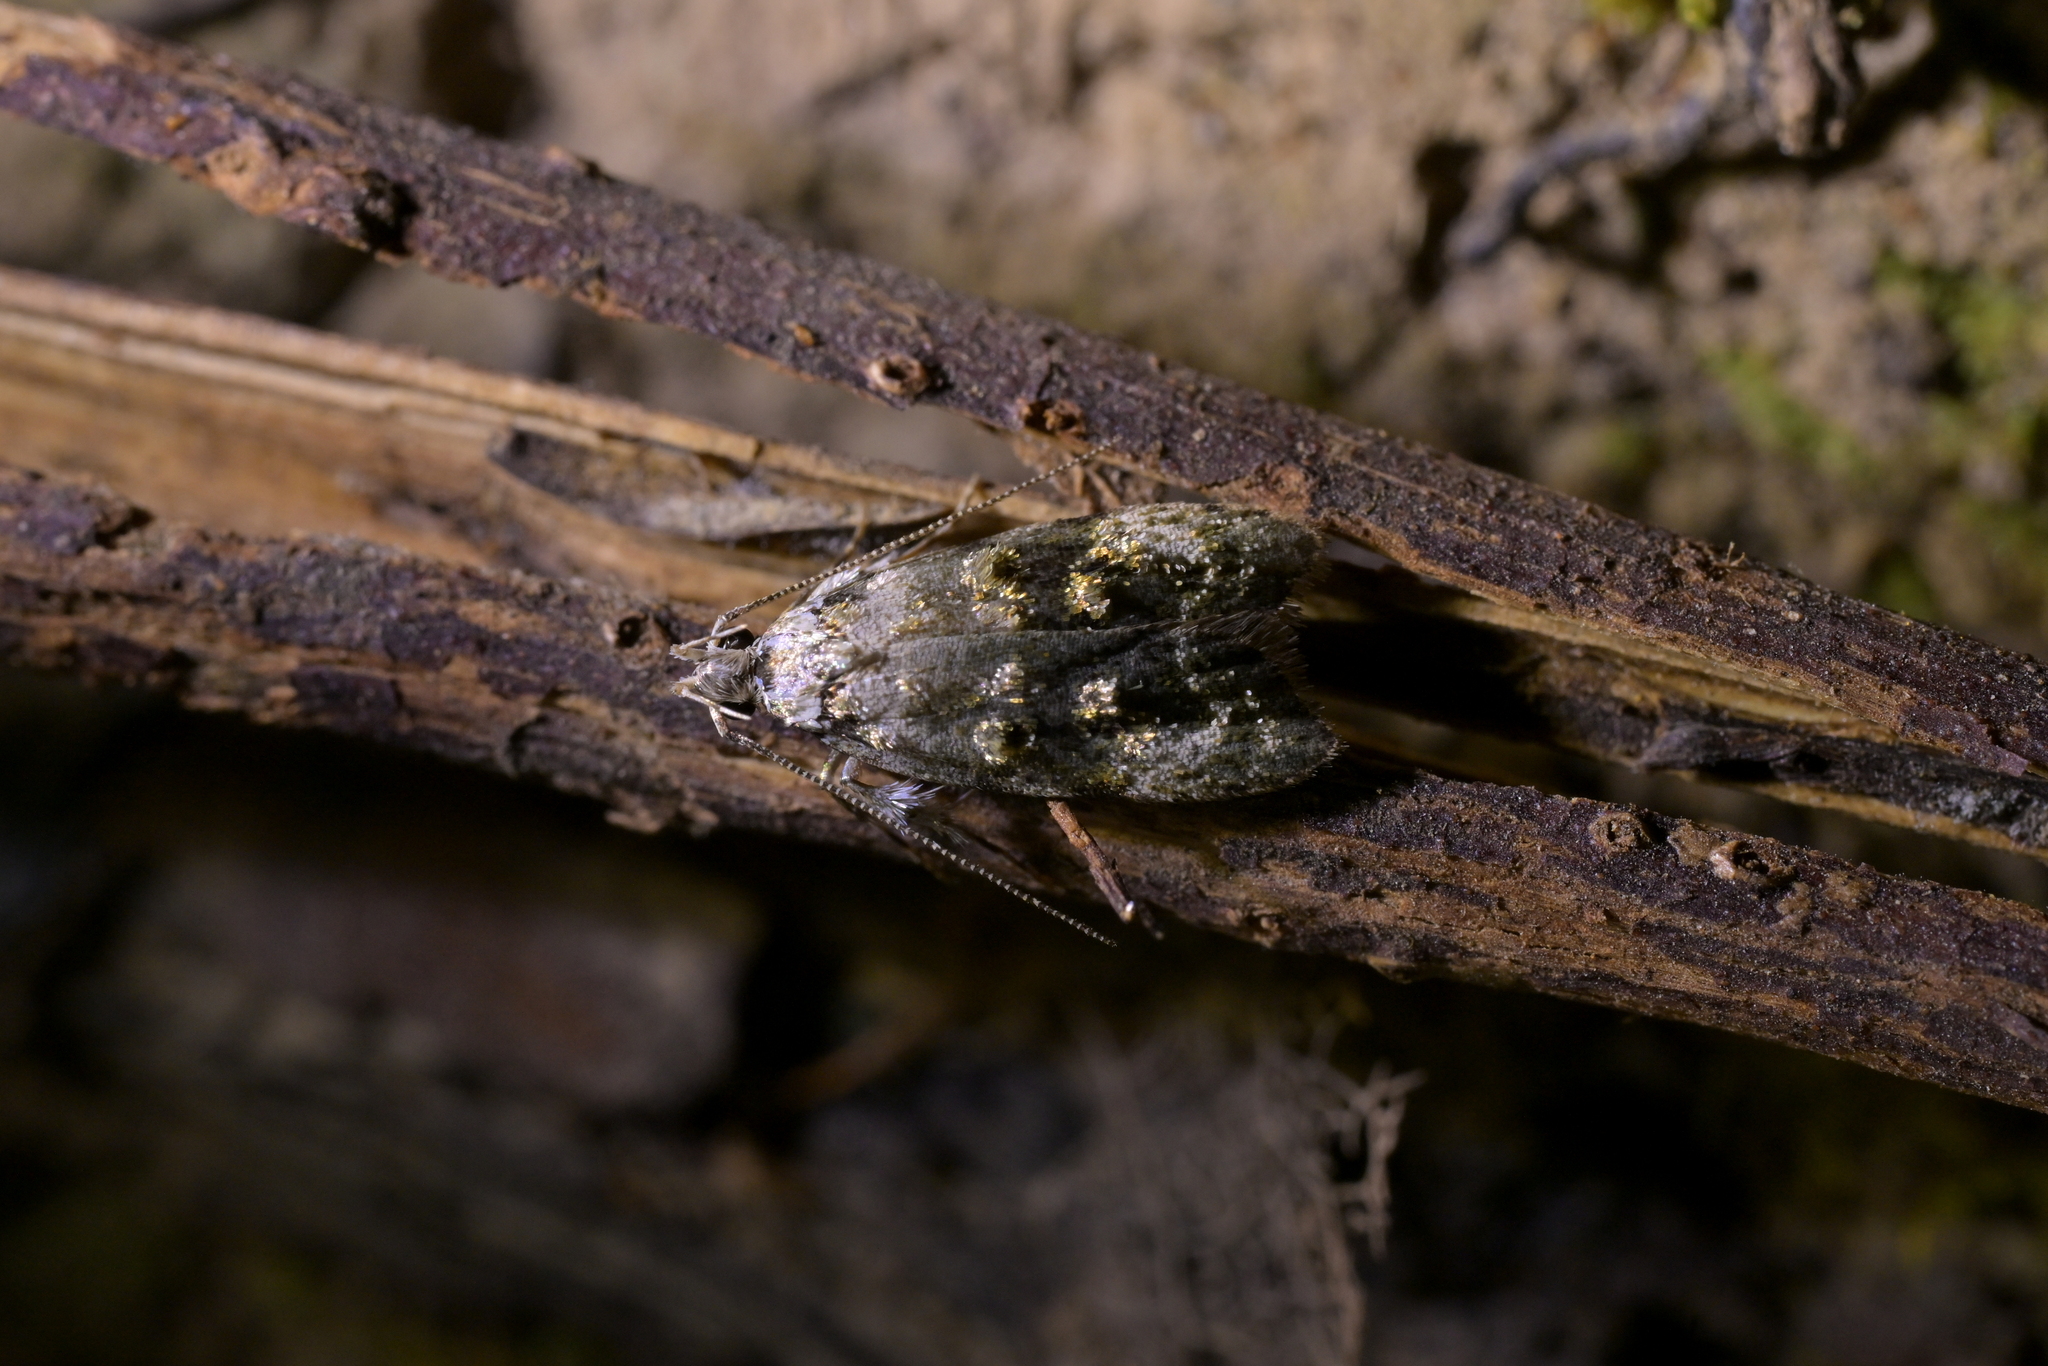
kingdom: Animalia
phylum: Arthropoda
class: Insecta
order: Lepidoptera
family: Oecophoridae
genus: Izatha
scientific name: Izatha prasophyta
